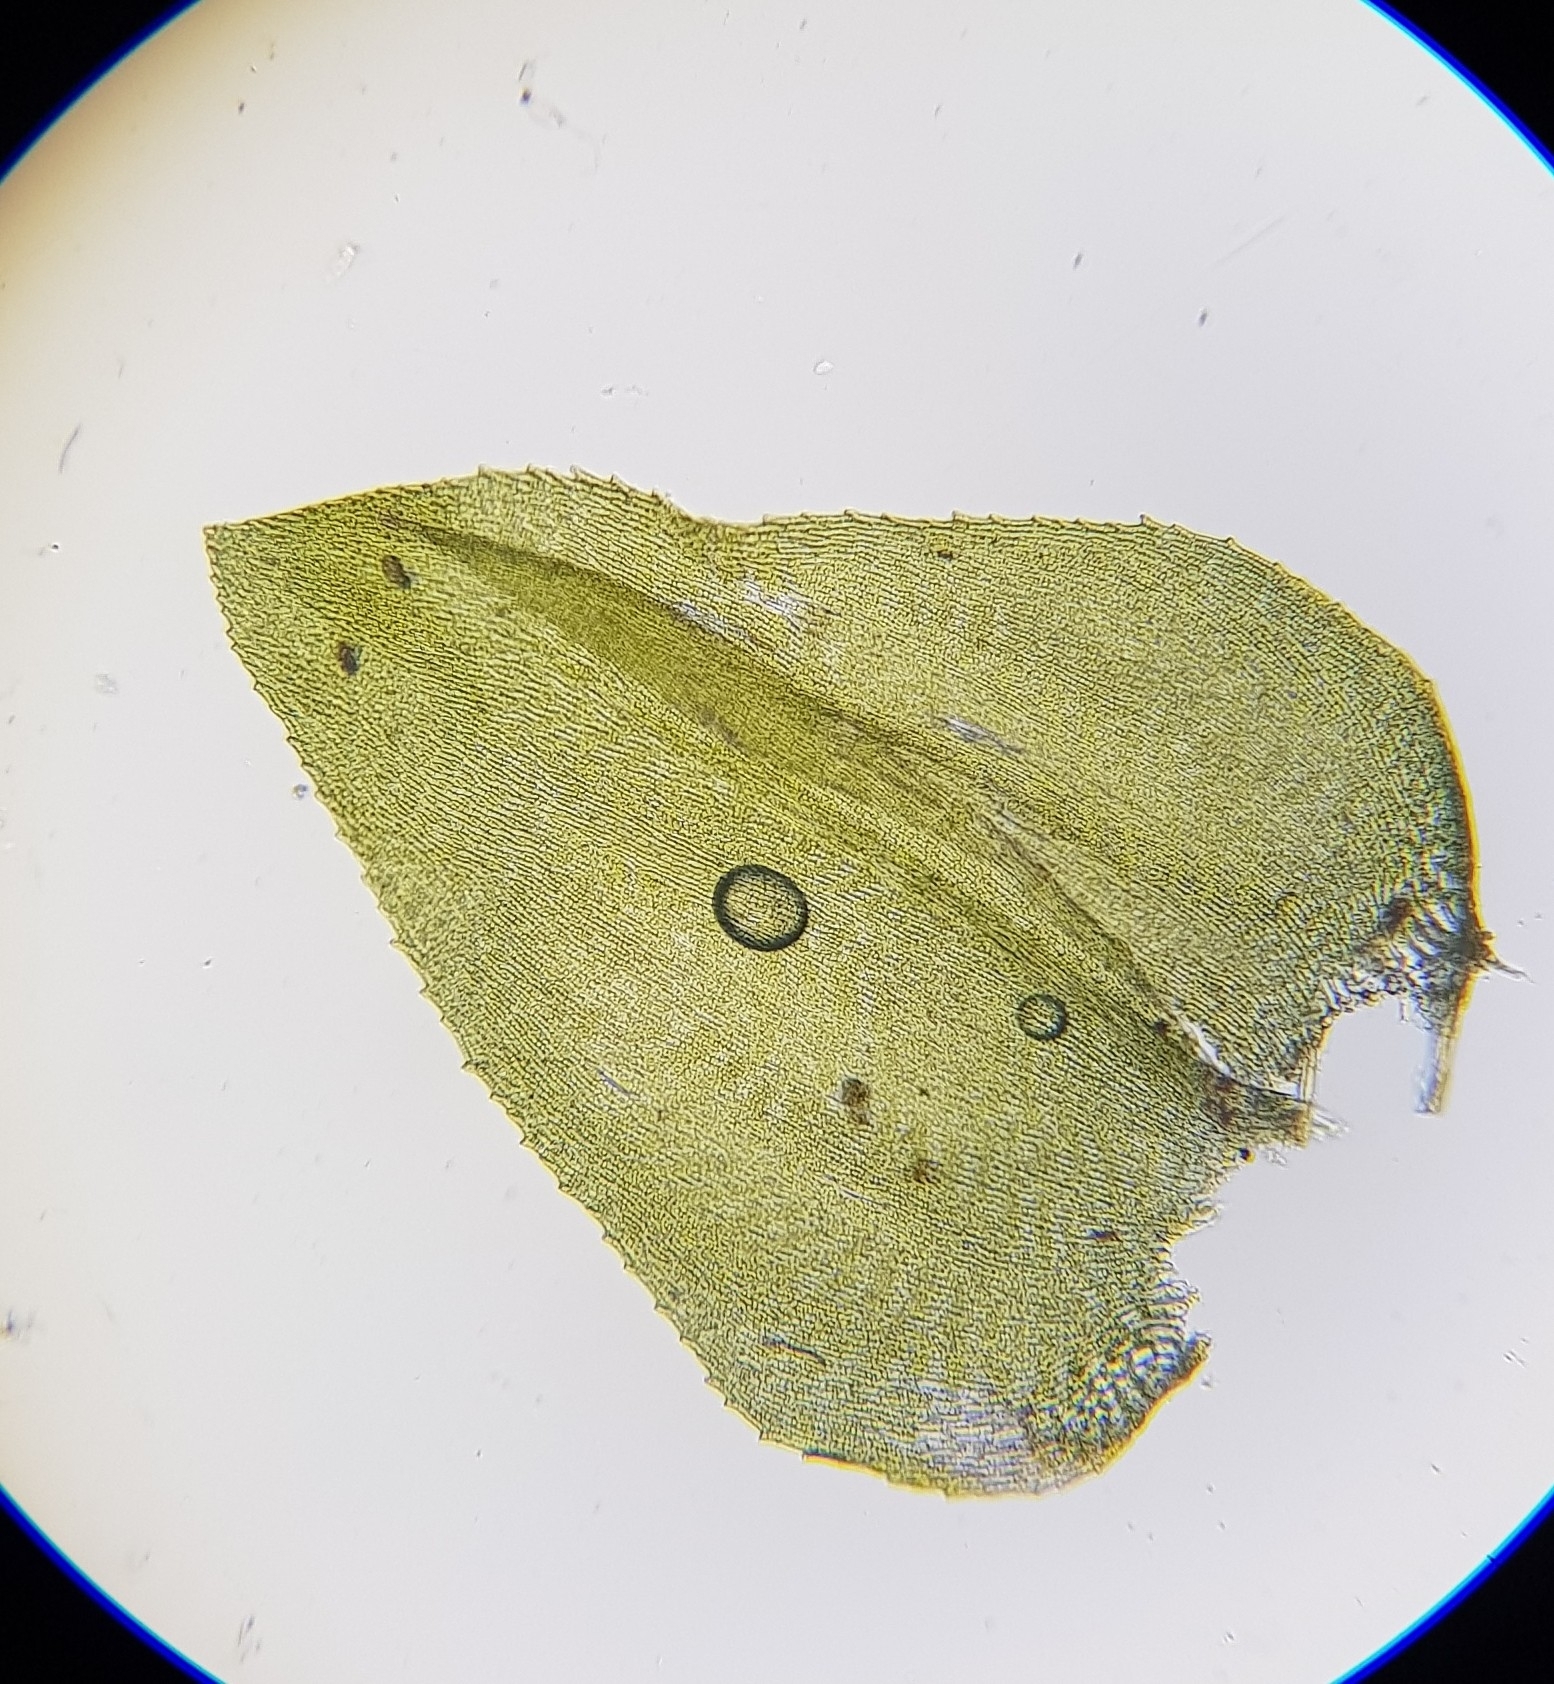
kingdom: Plantae
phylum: Bryophyta
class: Bryopsida
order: Hypnales
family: Brachytheciaceae
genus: Eurhynchium
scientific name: Eurhynchium striatum
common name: Common striated feather-moss
